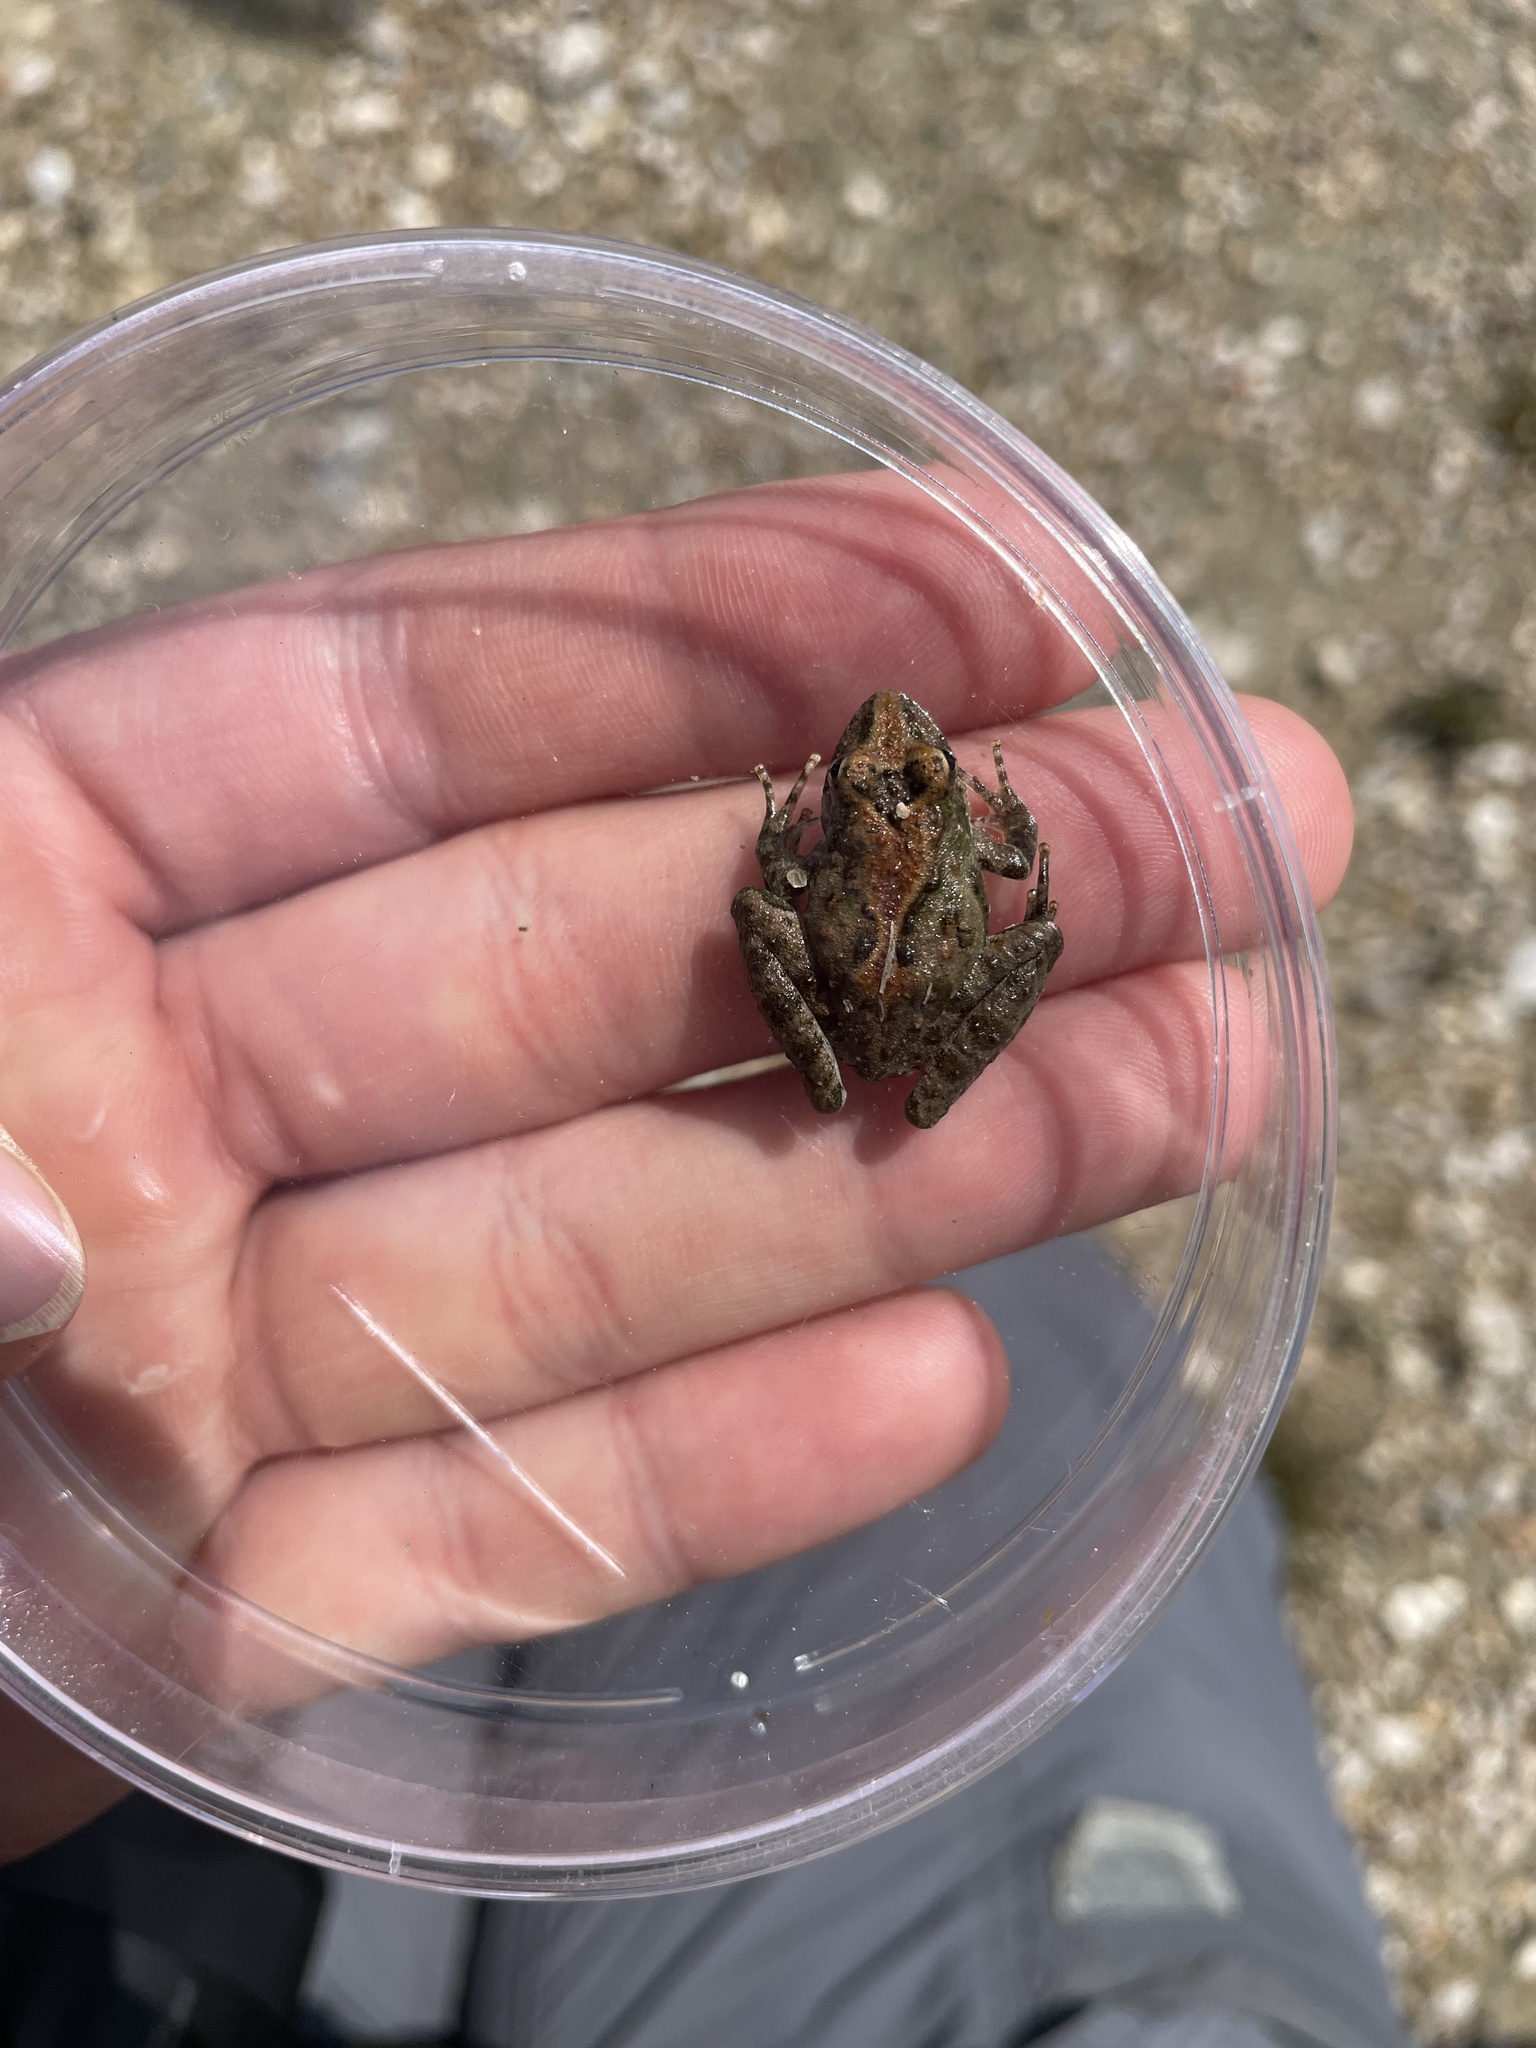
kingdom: Animalia
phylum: Chordata
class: Amphibia
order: Anura
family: Hylidae
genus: Acris
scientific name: Acris blanchardi
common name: Blanchard's cricket frog
